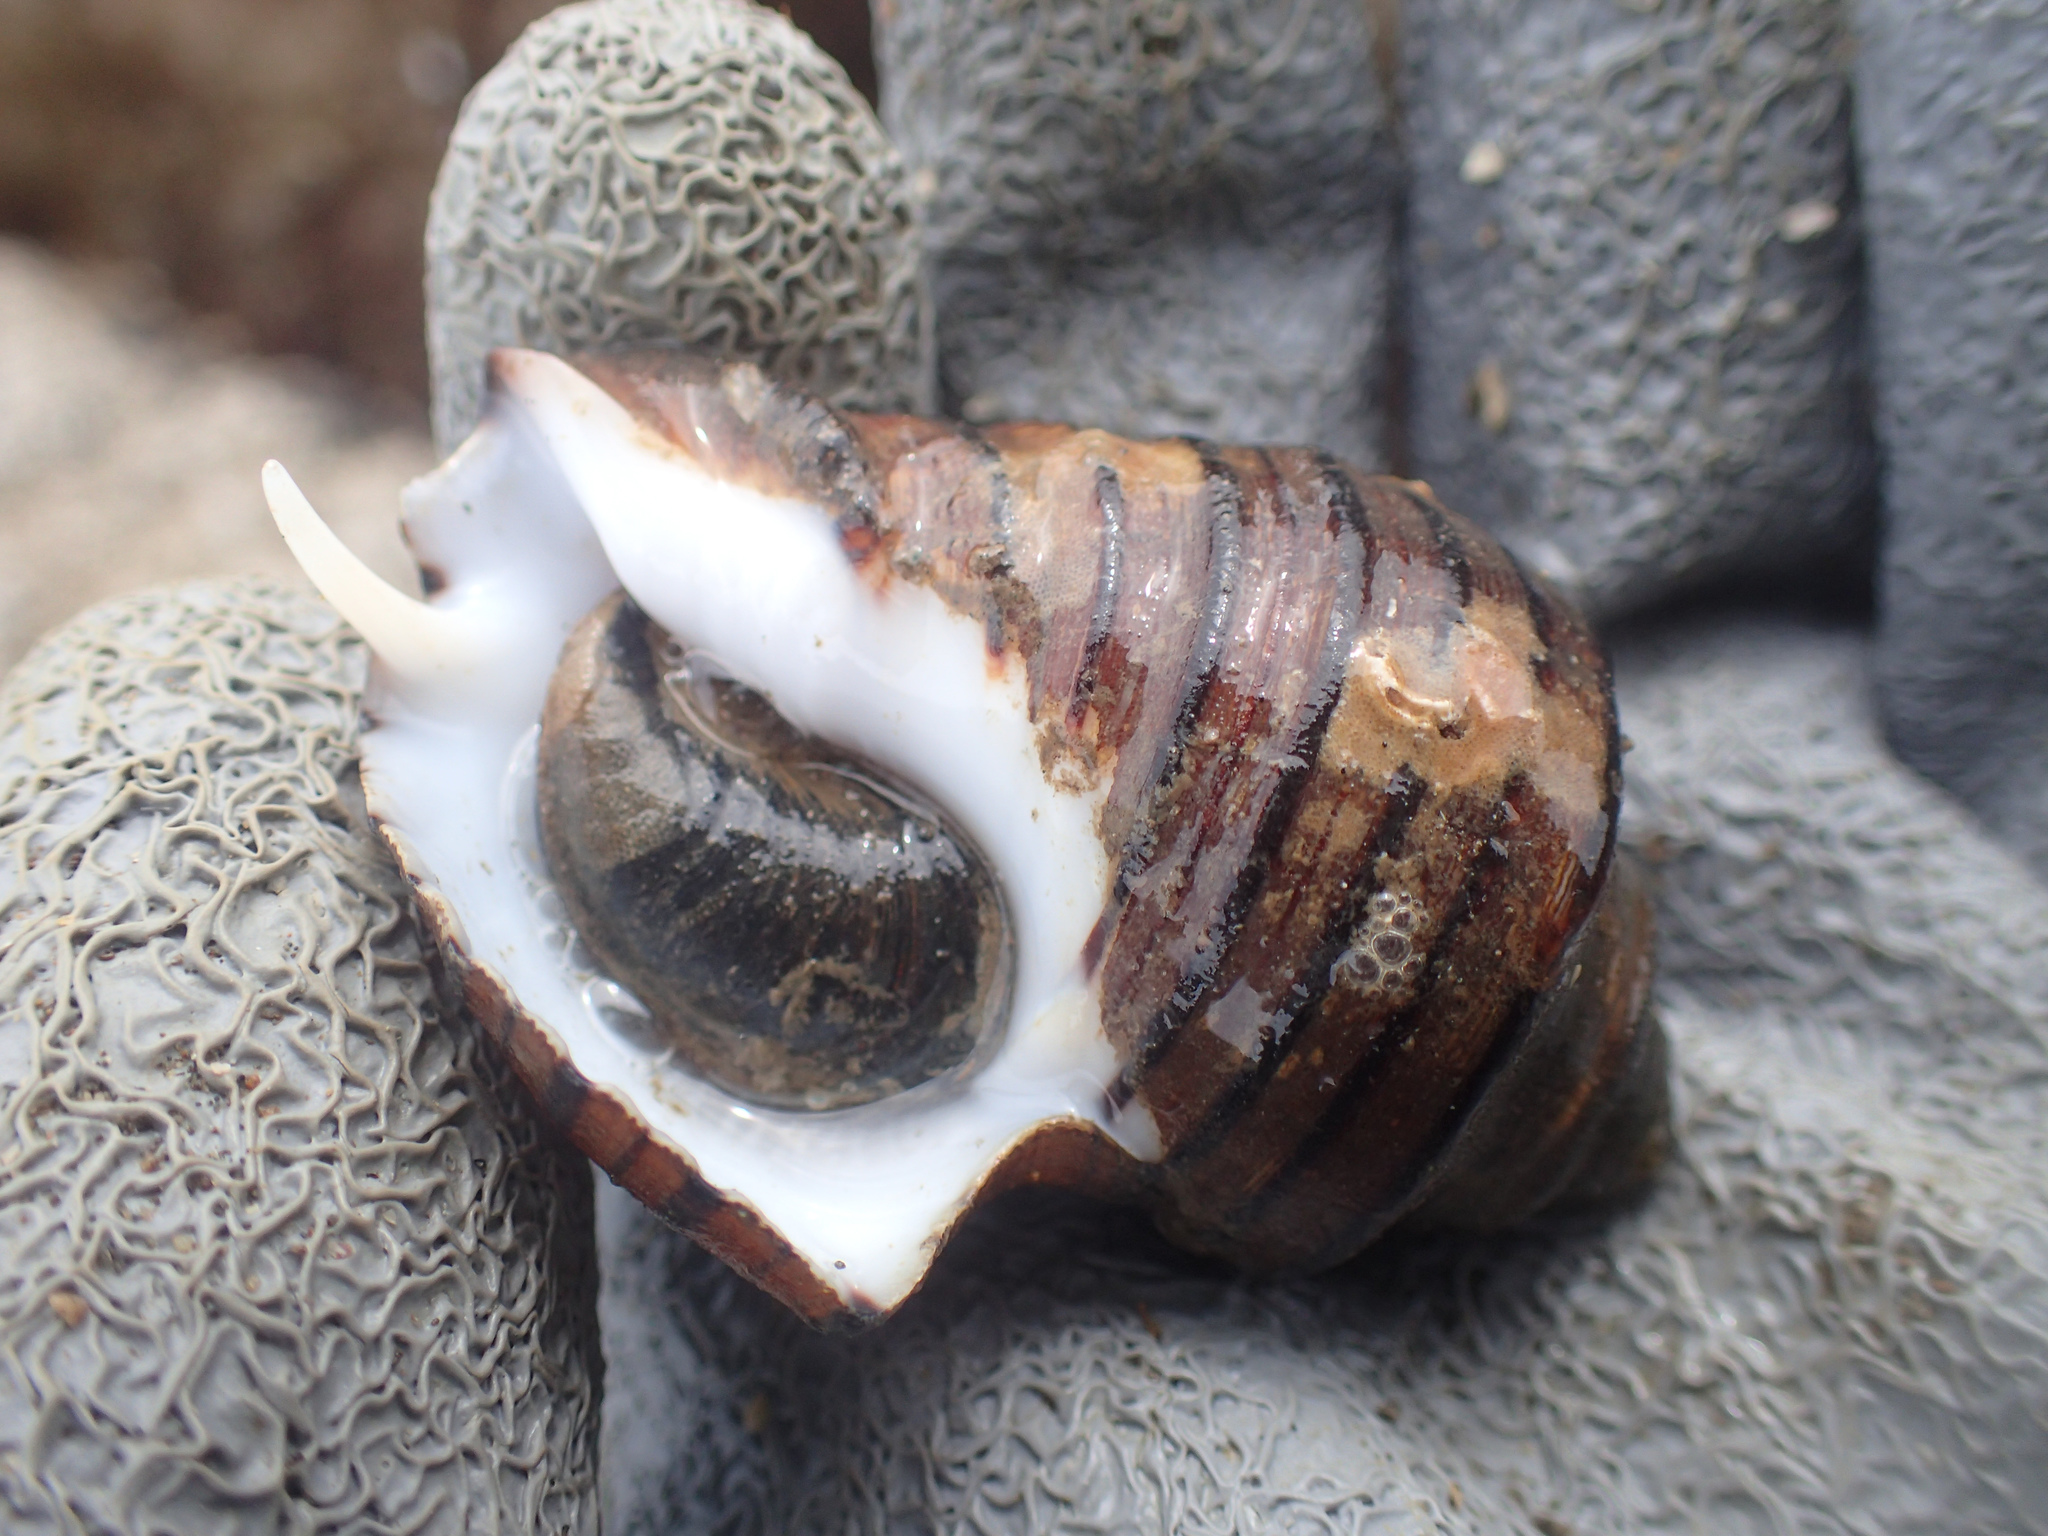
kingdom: Animalia
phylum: Mollusca
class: Gastropoda
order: Neogastropoda
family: Fasciolariidae
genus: Opeatostoma
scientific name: Opeatostoma pseudodon
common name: Thorn latirus
